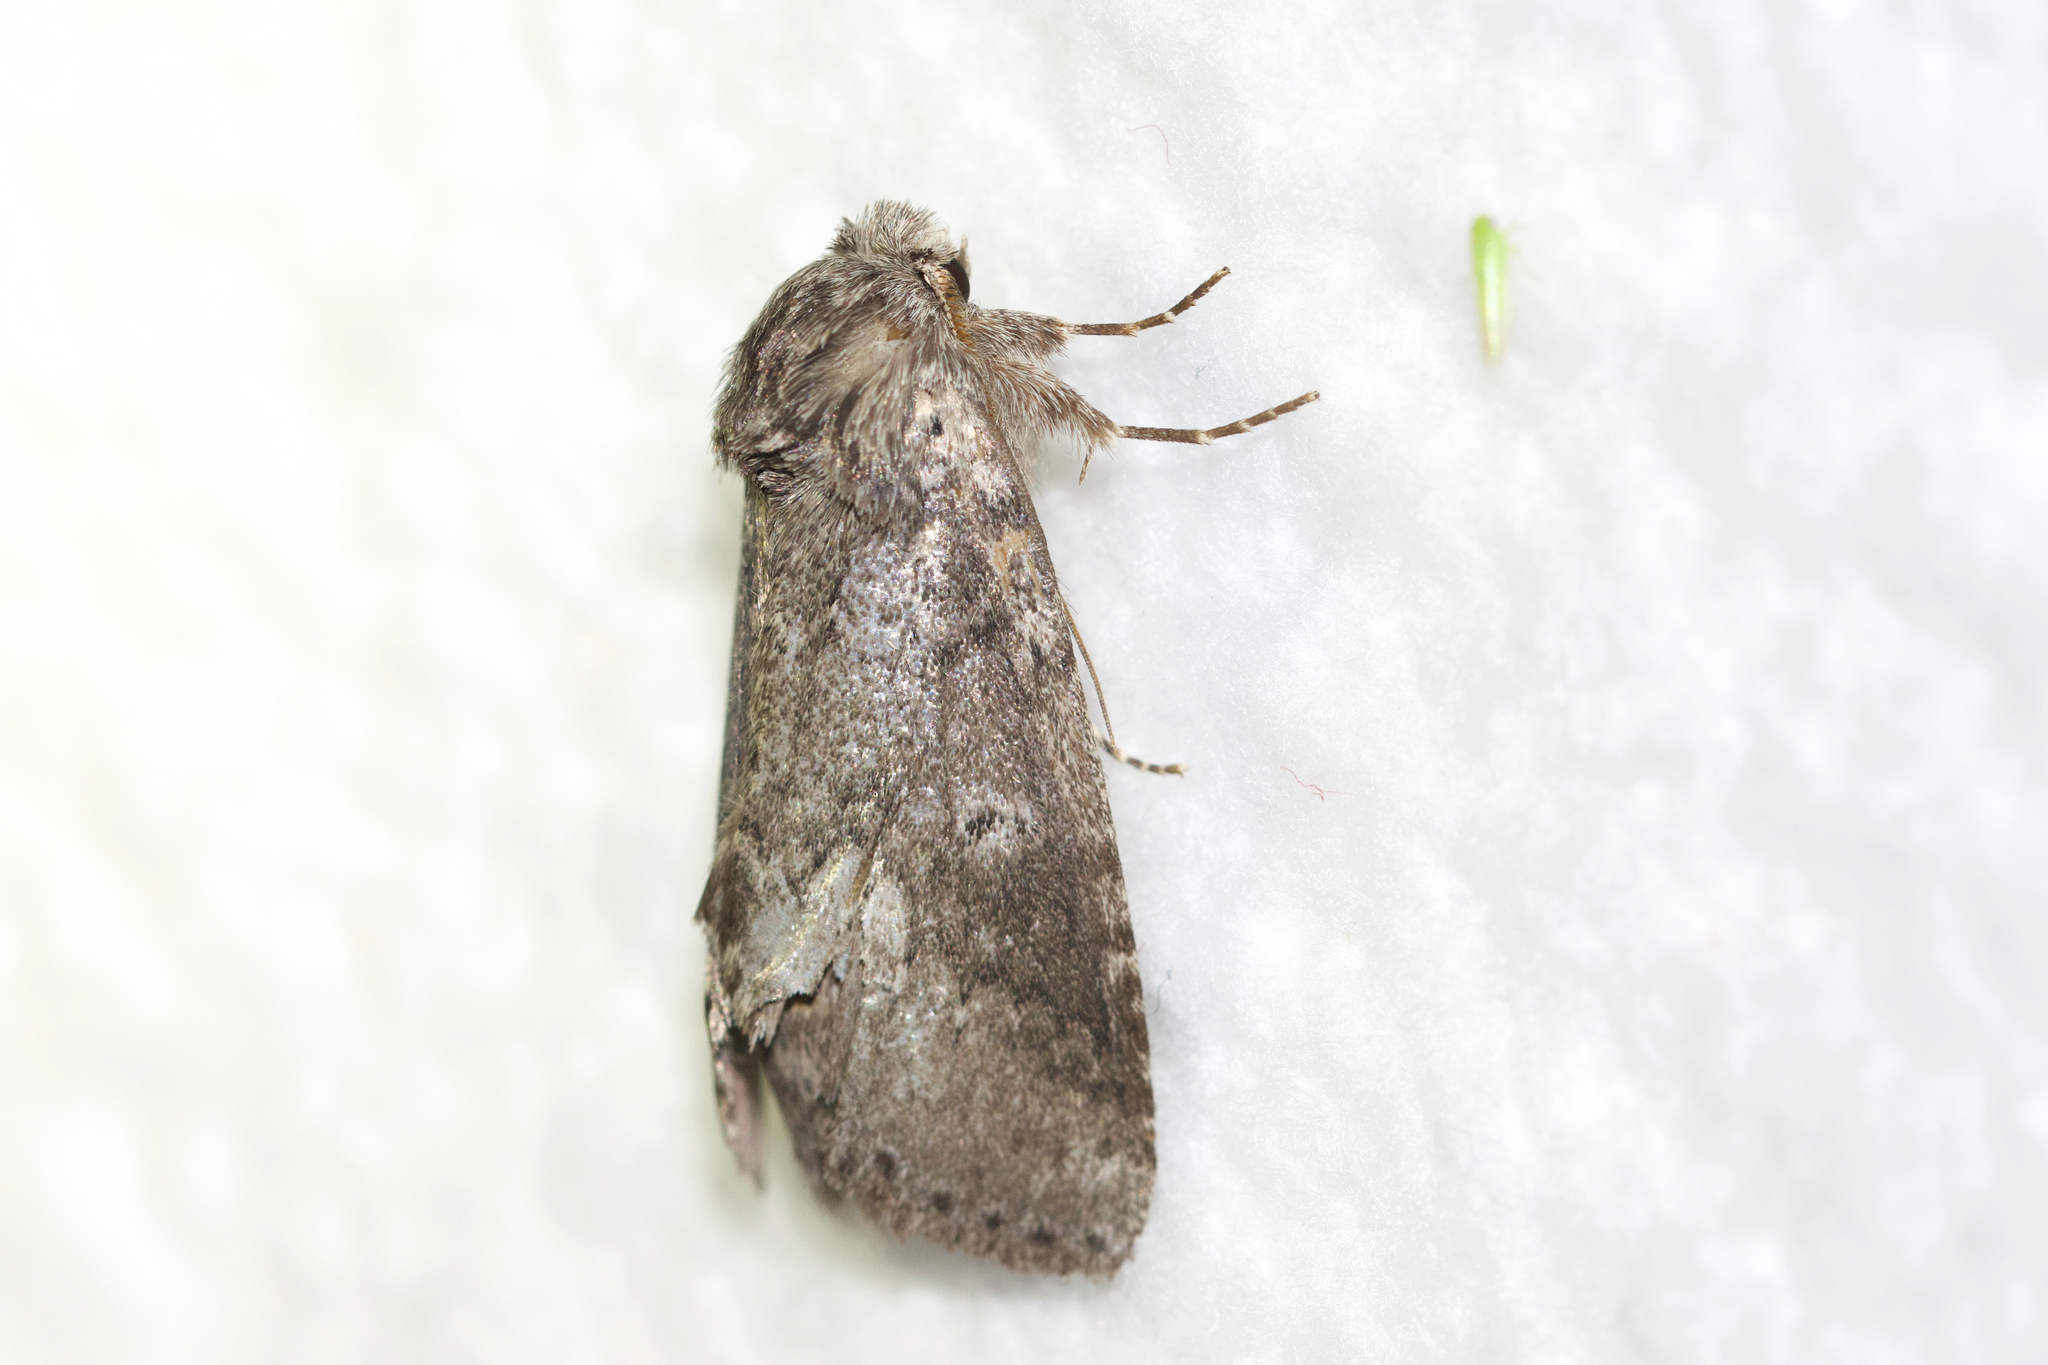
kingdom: Animalia
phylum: Arthropoda
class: Insecta
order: Lepidoptera
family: Notodontidae
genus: Lochmaeus
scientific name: Lochmaeus manteo
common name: Variable oakleaf caterpillar moth
